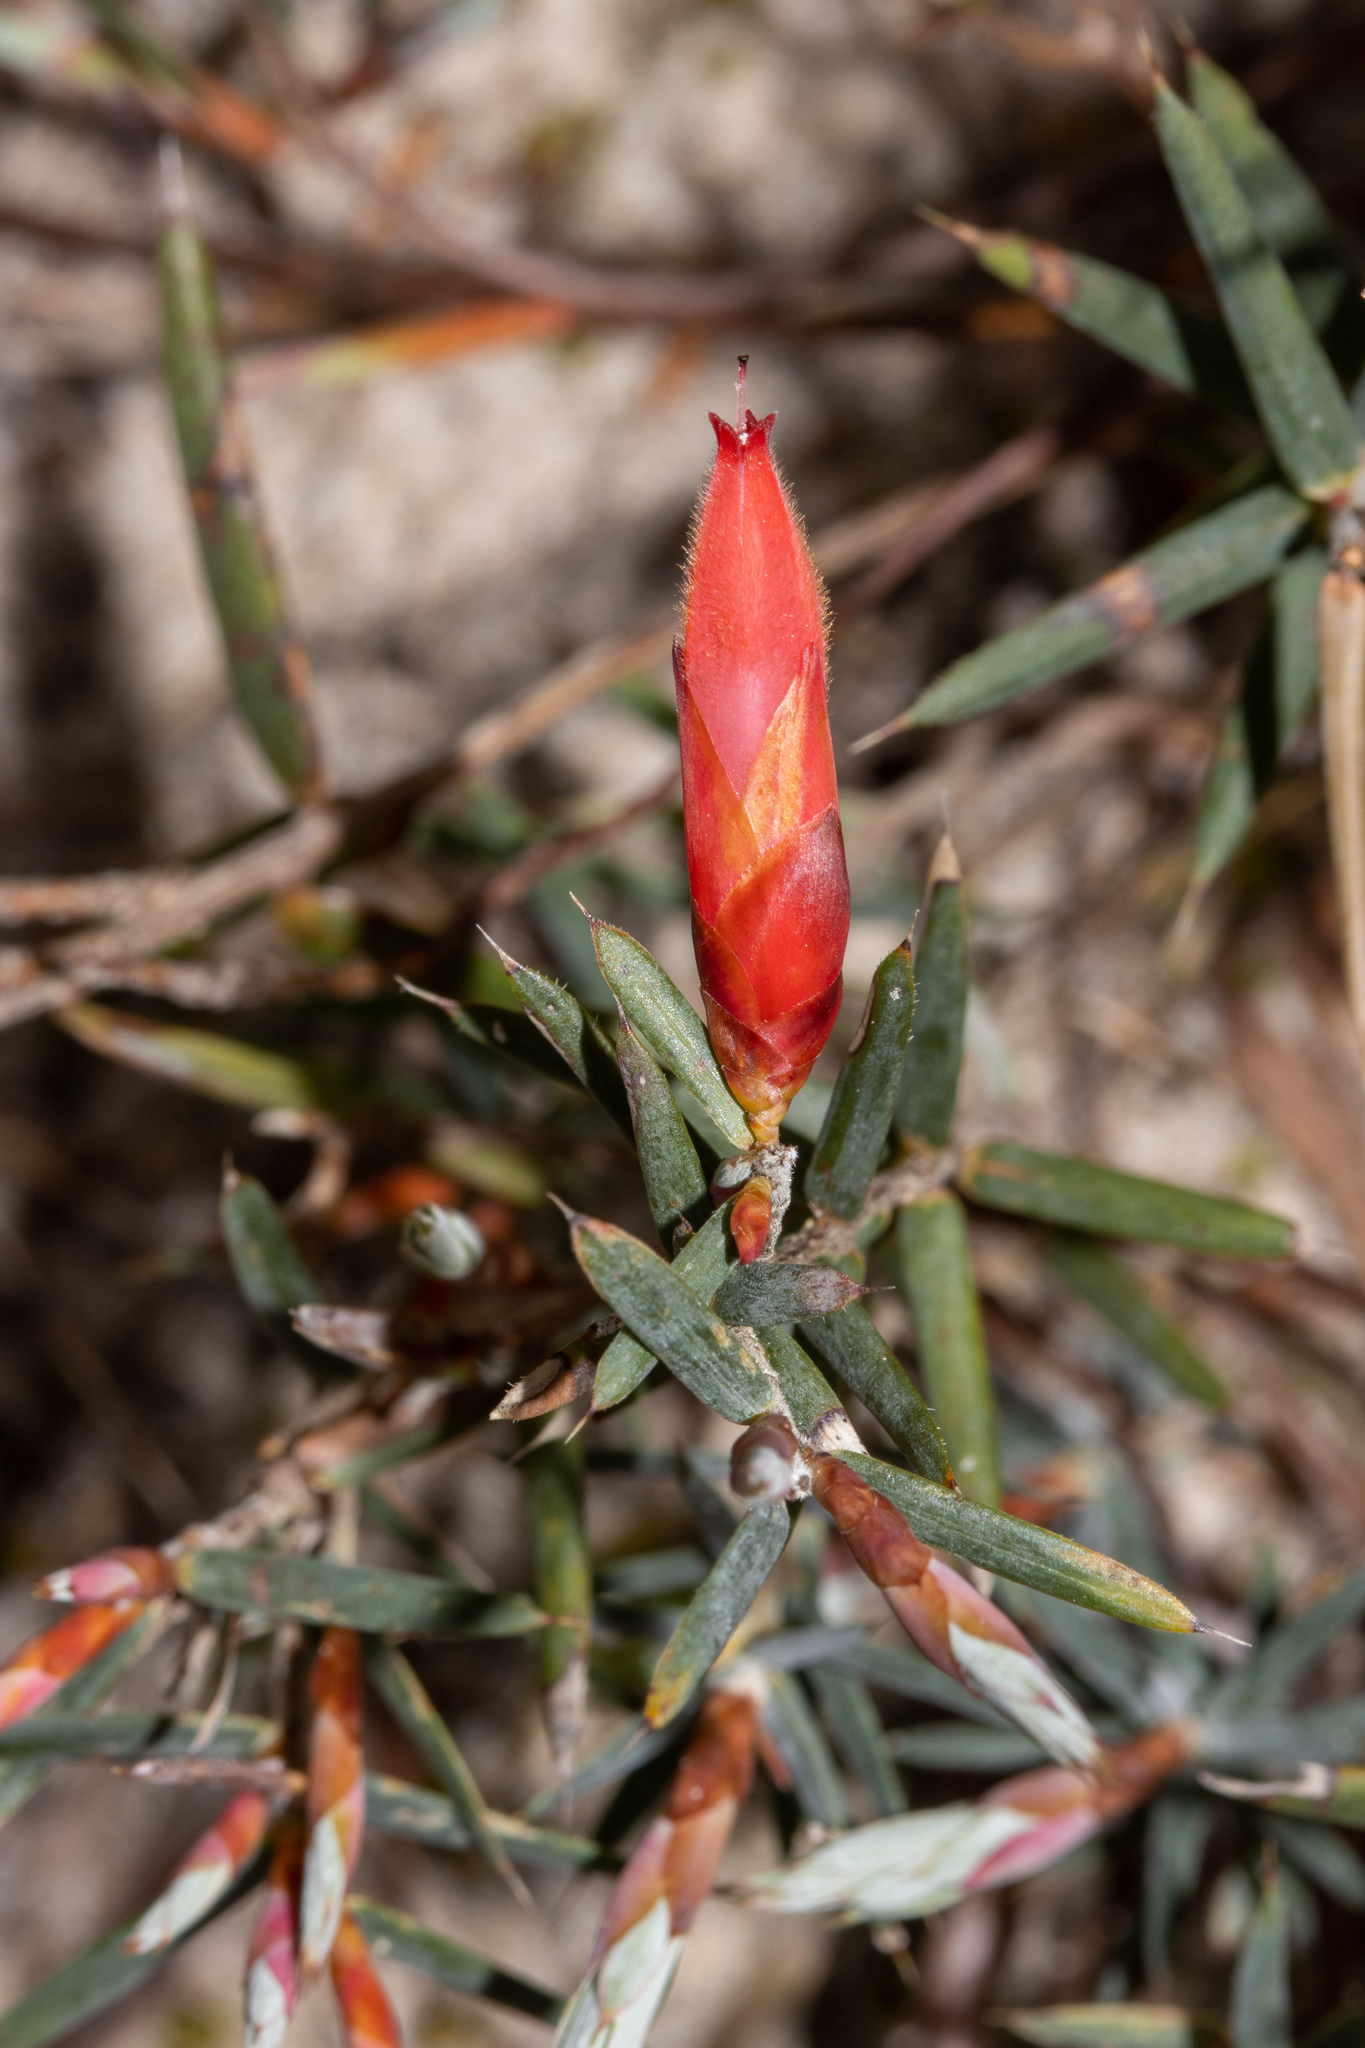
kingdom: Plantae
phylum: Tracheophyta
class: Magnoliopsida
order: Ericales
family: Ericaceae
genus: Stenanthera
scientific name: Stenanthera conostephioides
